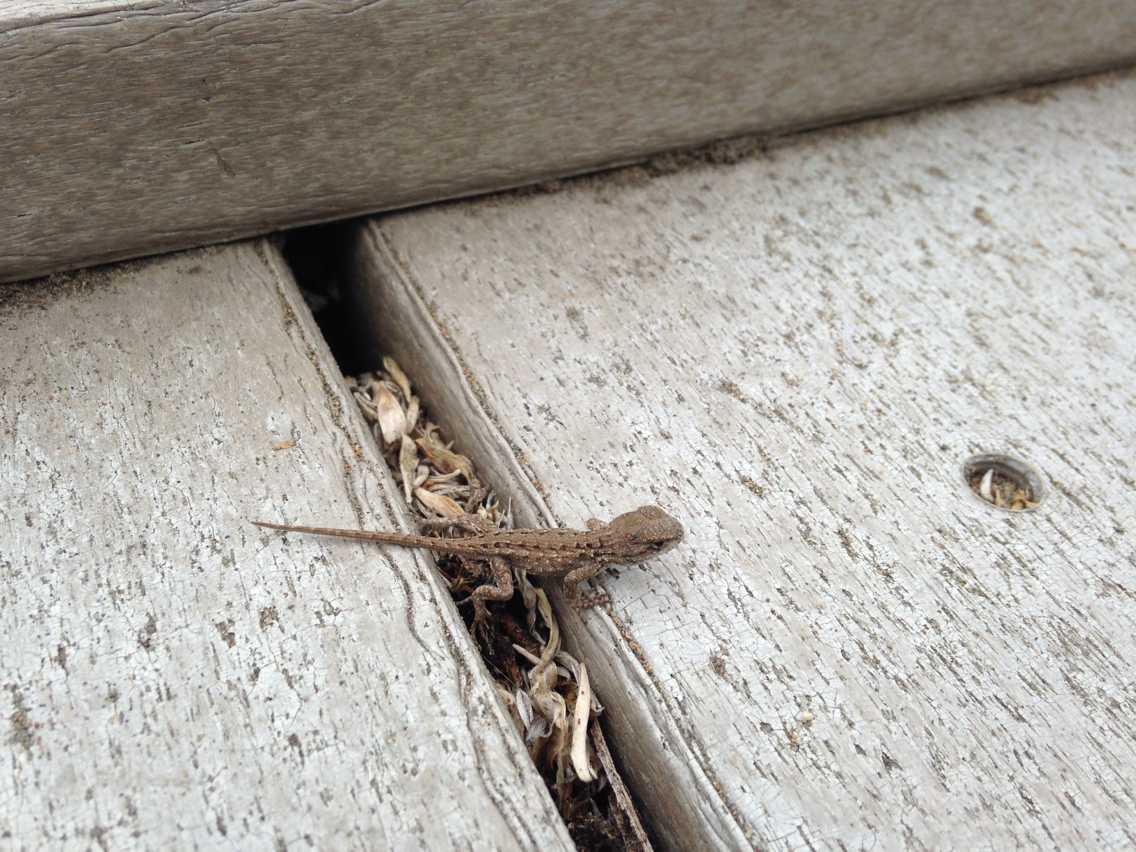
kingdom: Animalia
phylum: Chordata
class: Squamata
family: Phrynosomatidae
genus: Sceloporus
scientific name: Sceloporus occidentalis
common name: Western fence lizard
